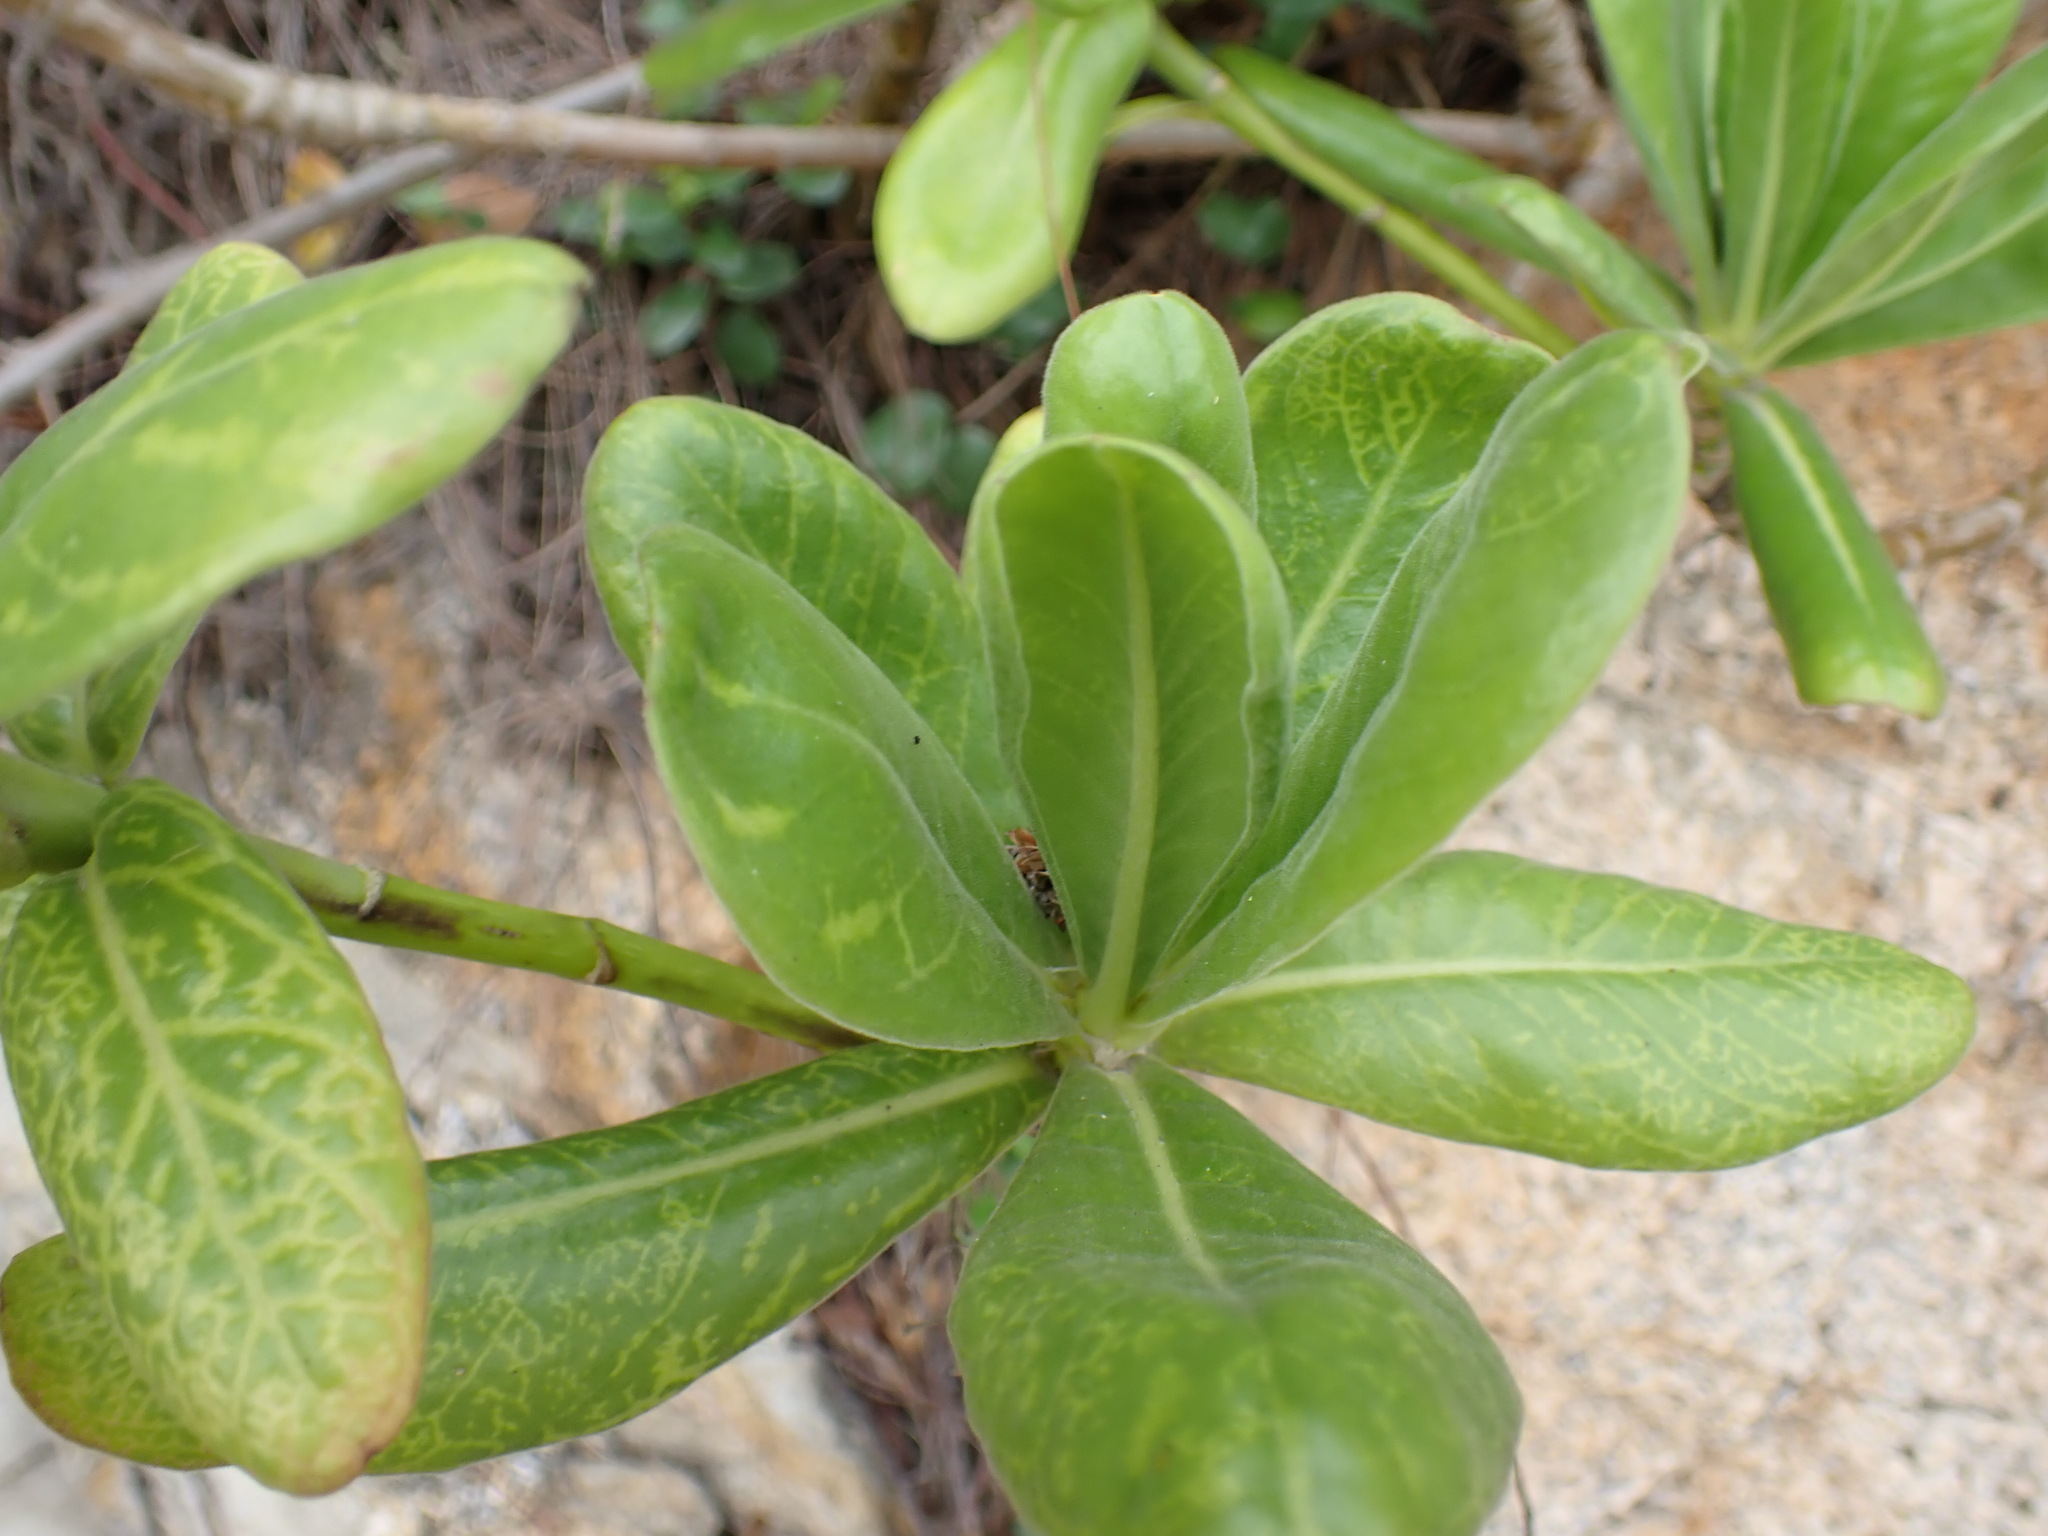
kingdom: Plantae
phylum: Tracheophyta
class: Magnoliopsida
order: Asterales
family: Goodeniaceae
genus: Scaevola
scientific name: Scaevola taccada
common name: Sea lettucetree
